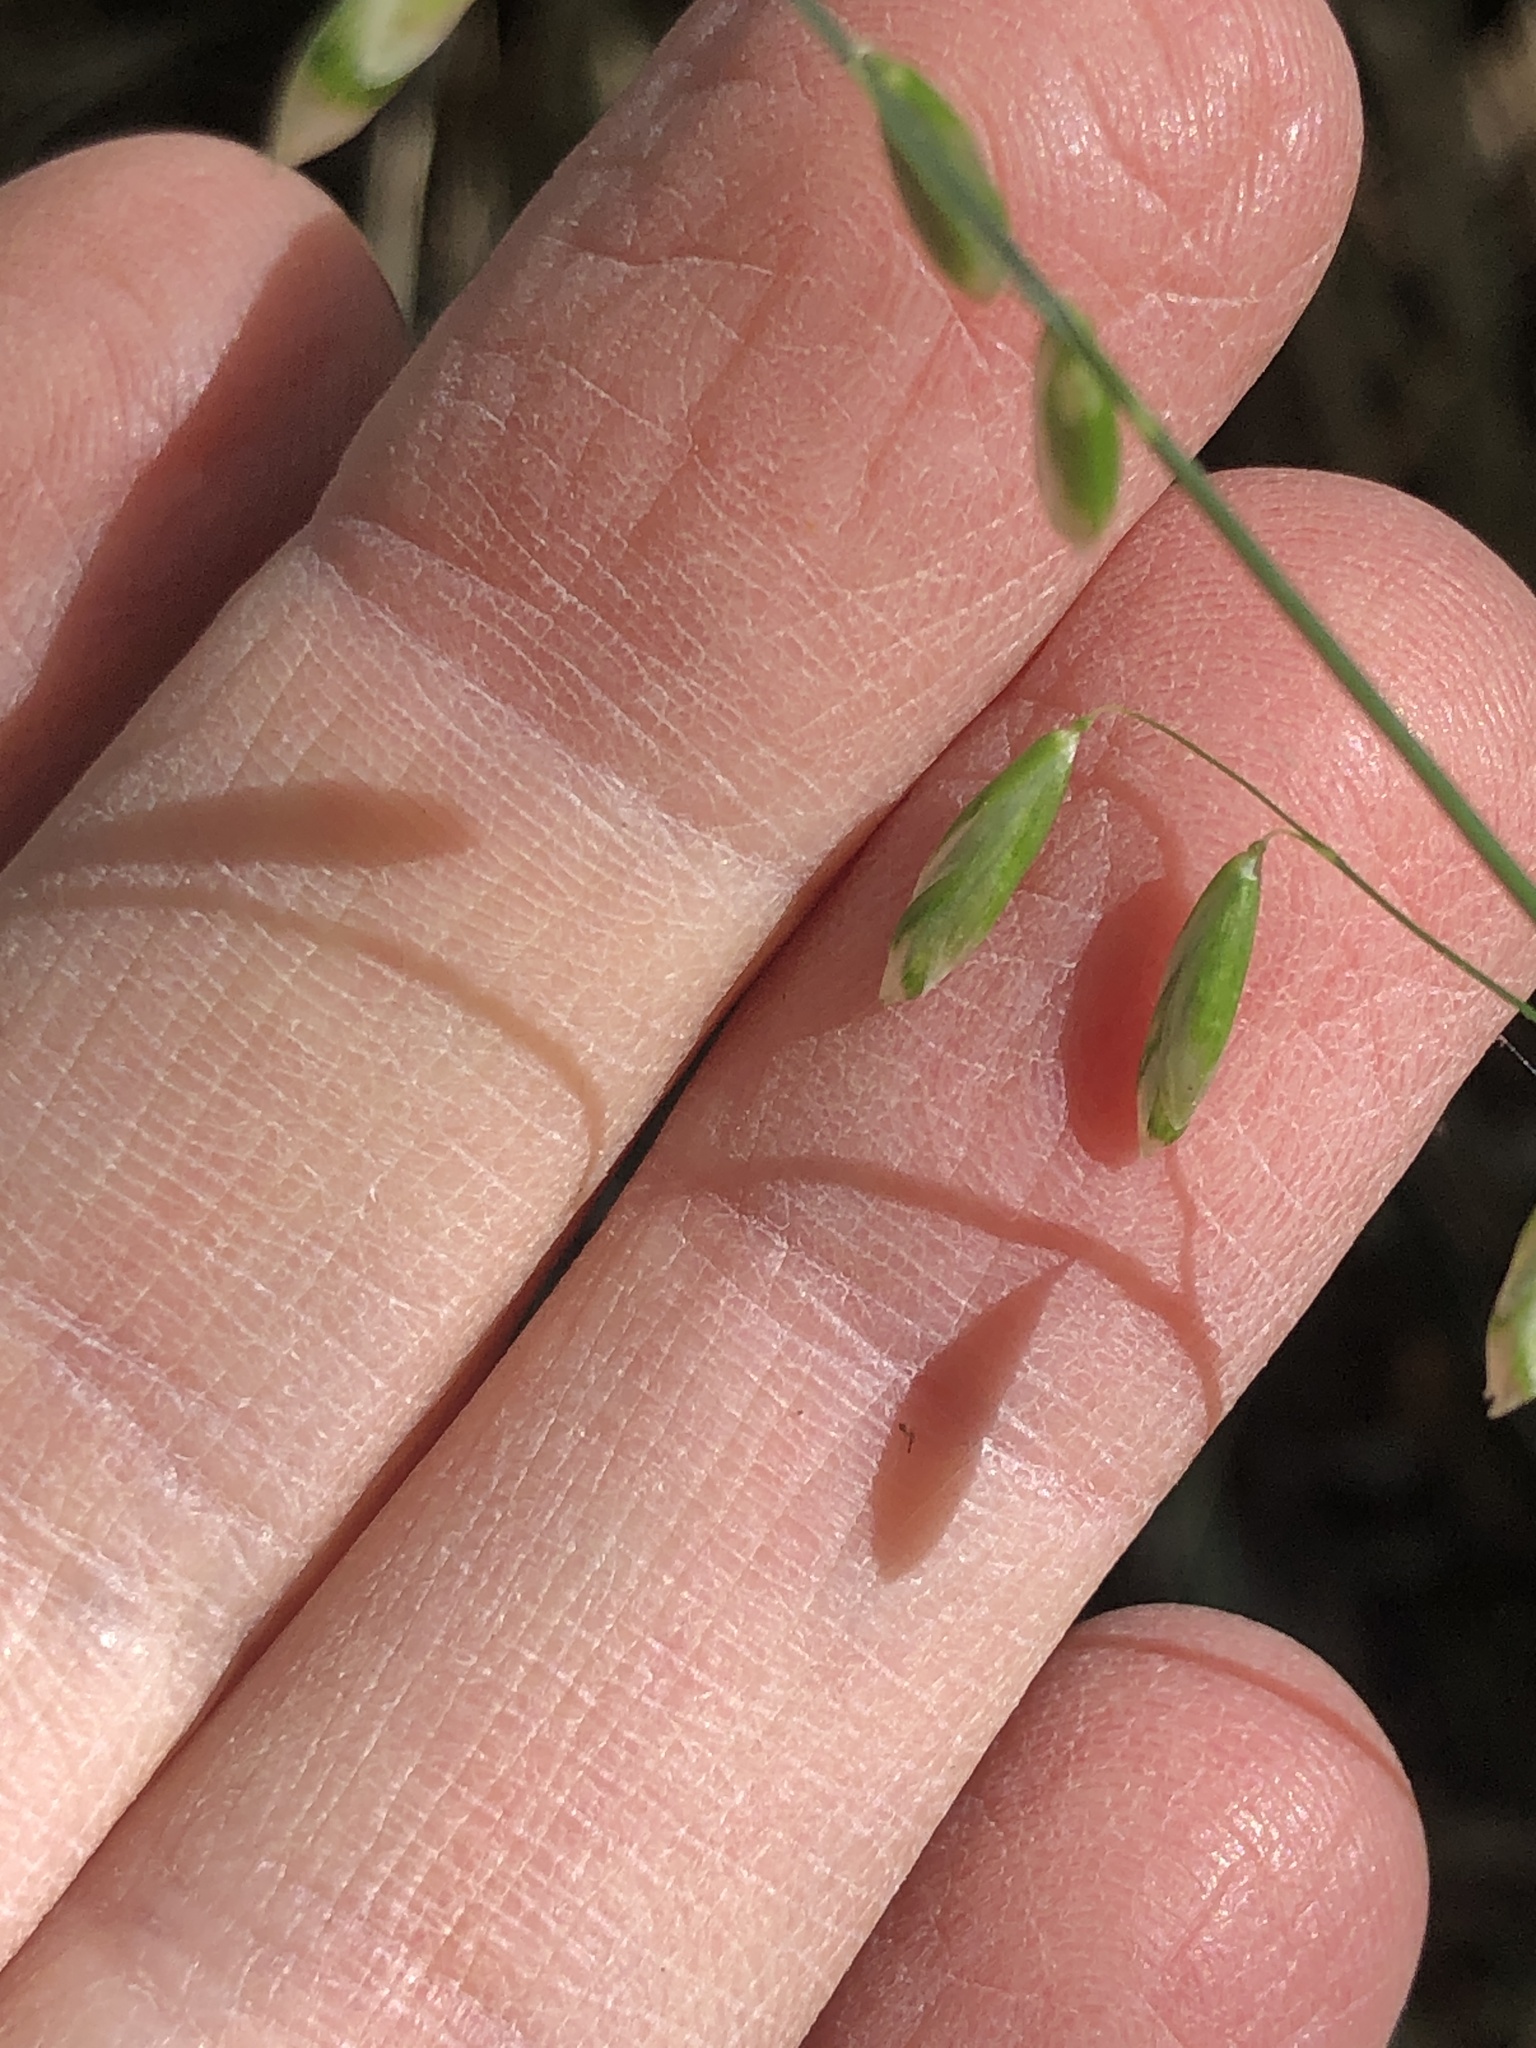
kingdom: Plantae
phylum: Tracheophyta
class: Liliopsida
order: Poales
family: Poaceae
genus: Melica
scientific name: Melica mutica
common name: Two-flower melic
